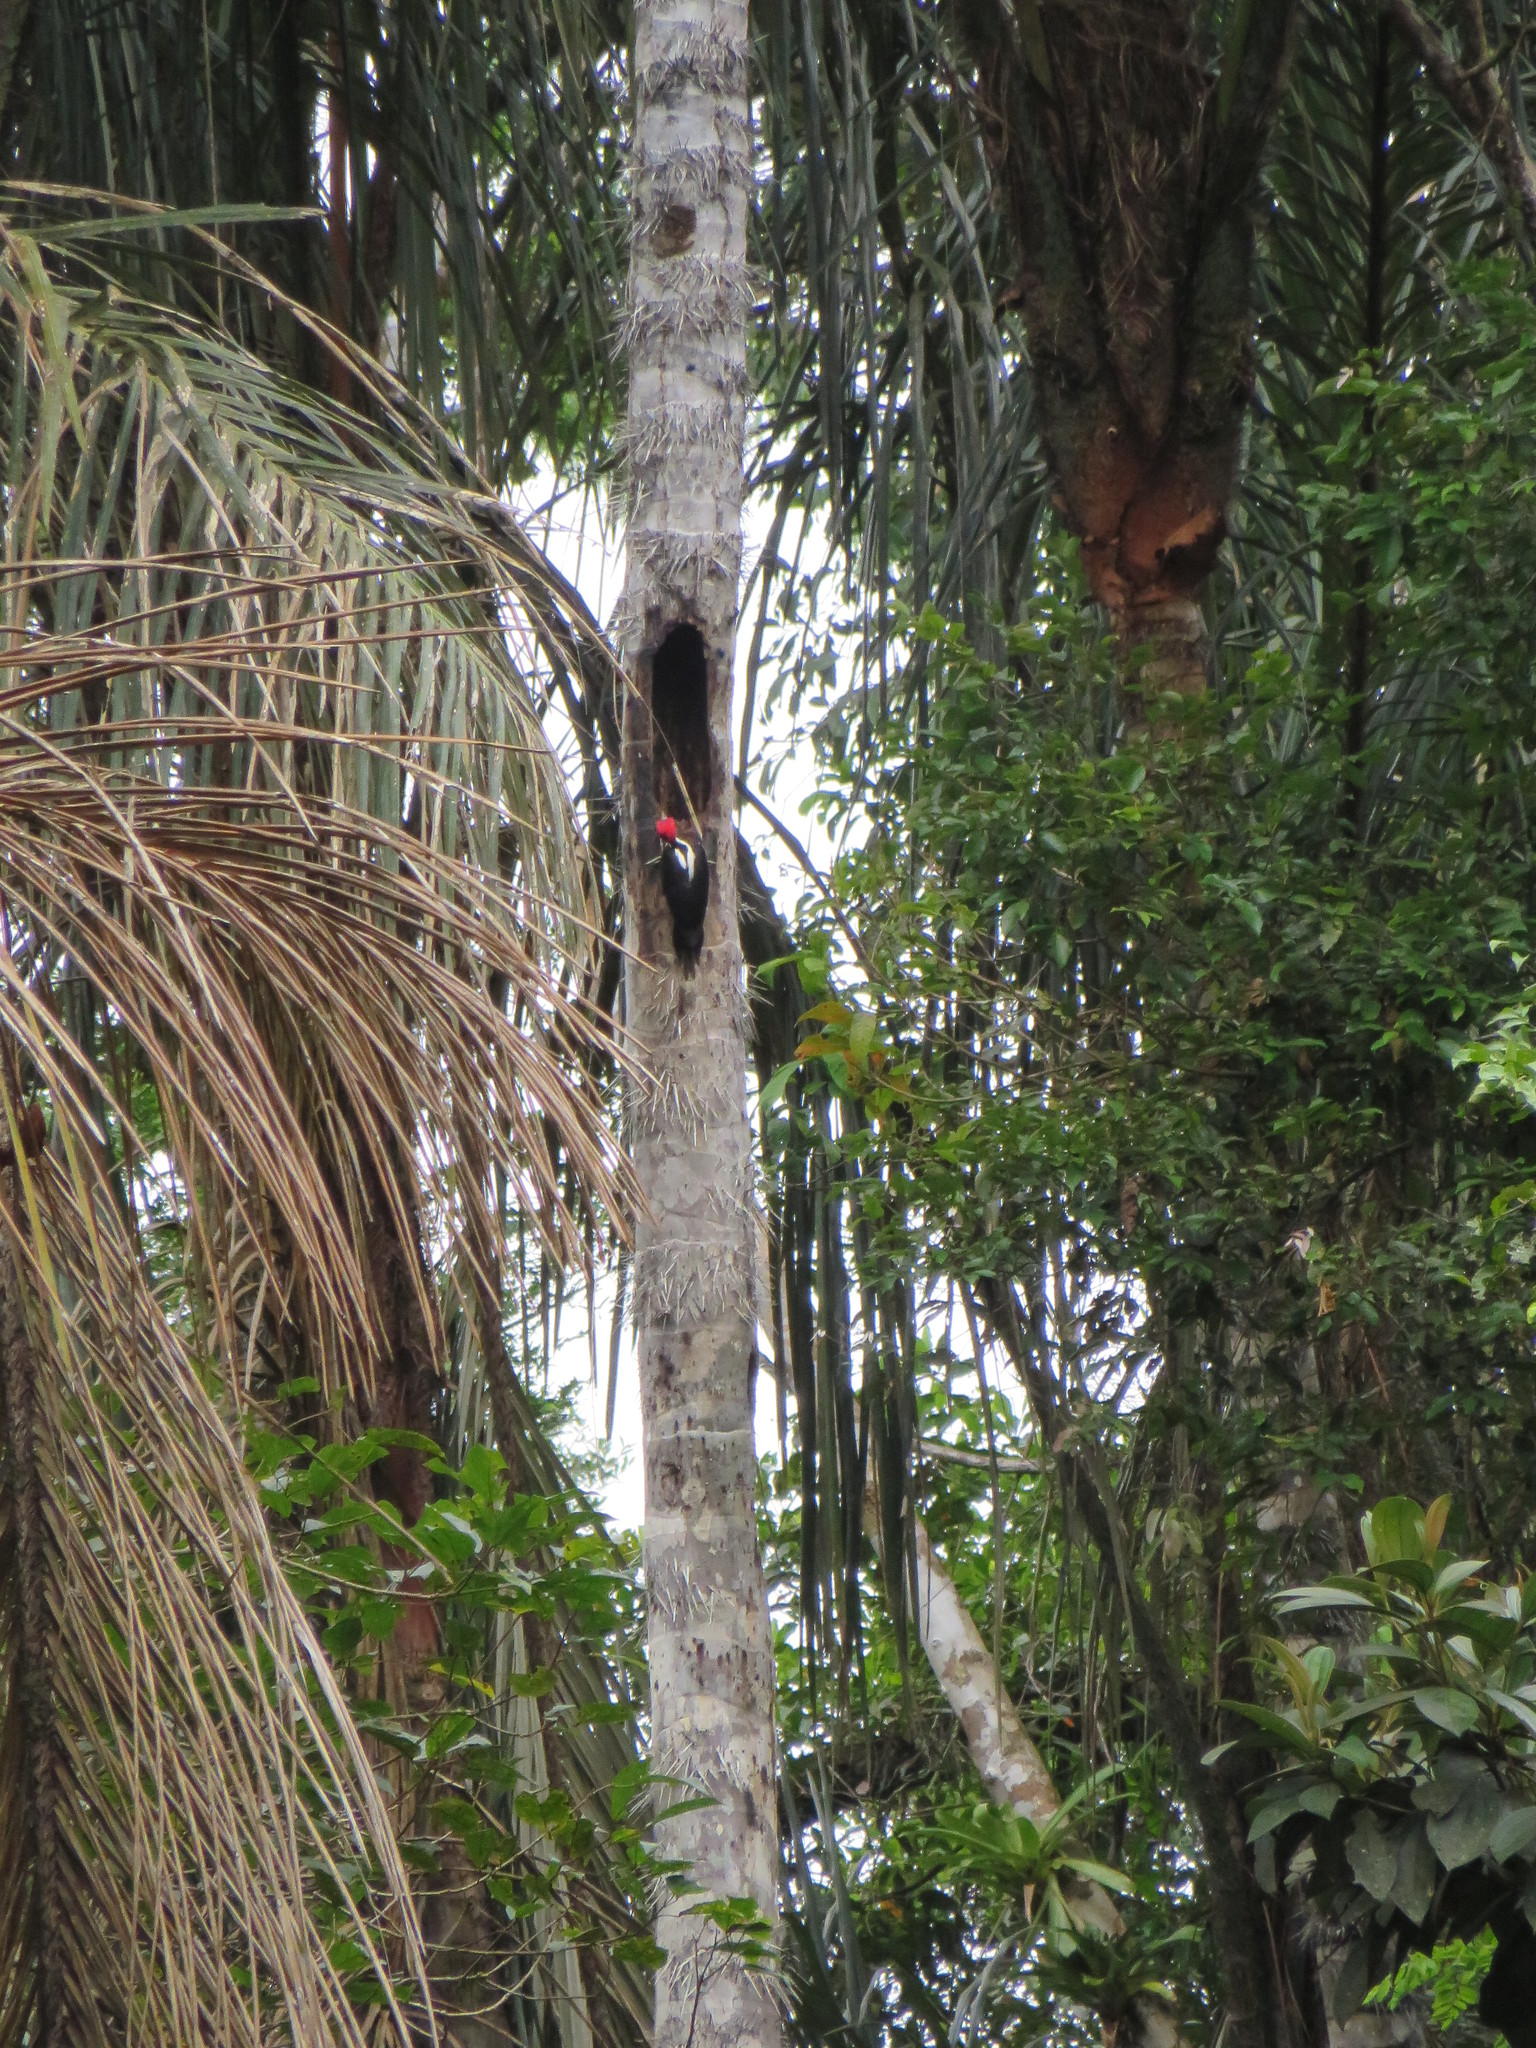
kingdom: Animalia
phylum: Chordata
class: Aves
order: Piciformes
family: Picidae
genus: Campephilus
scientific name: Campephilus melanoleucos
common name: Crimson-crested woodpecker
